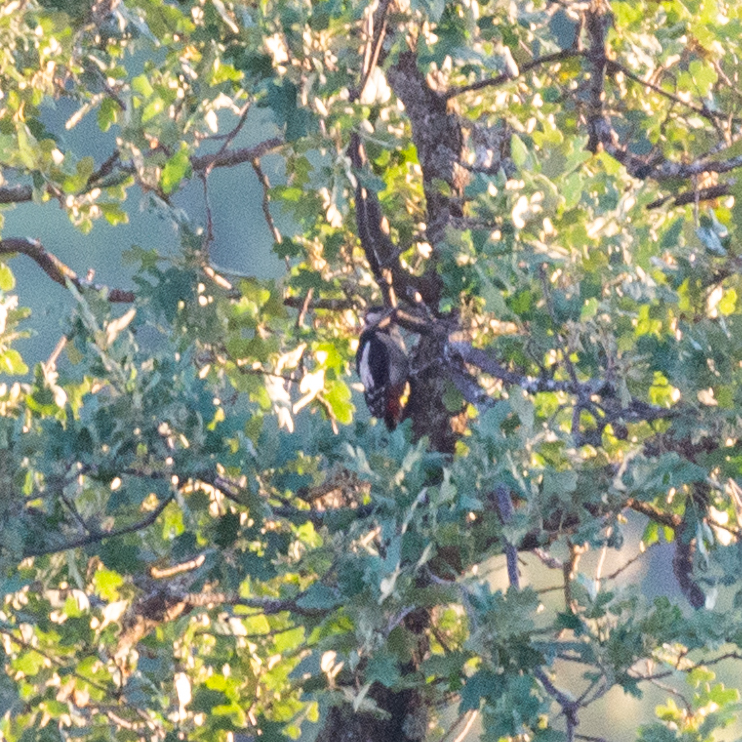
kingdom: Animalia
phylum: Chordata
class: Aves
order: Piciformes
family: Picidae
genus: Dendrocopos
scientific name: Dendrocopos major
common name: Great spotted woodpecker
